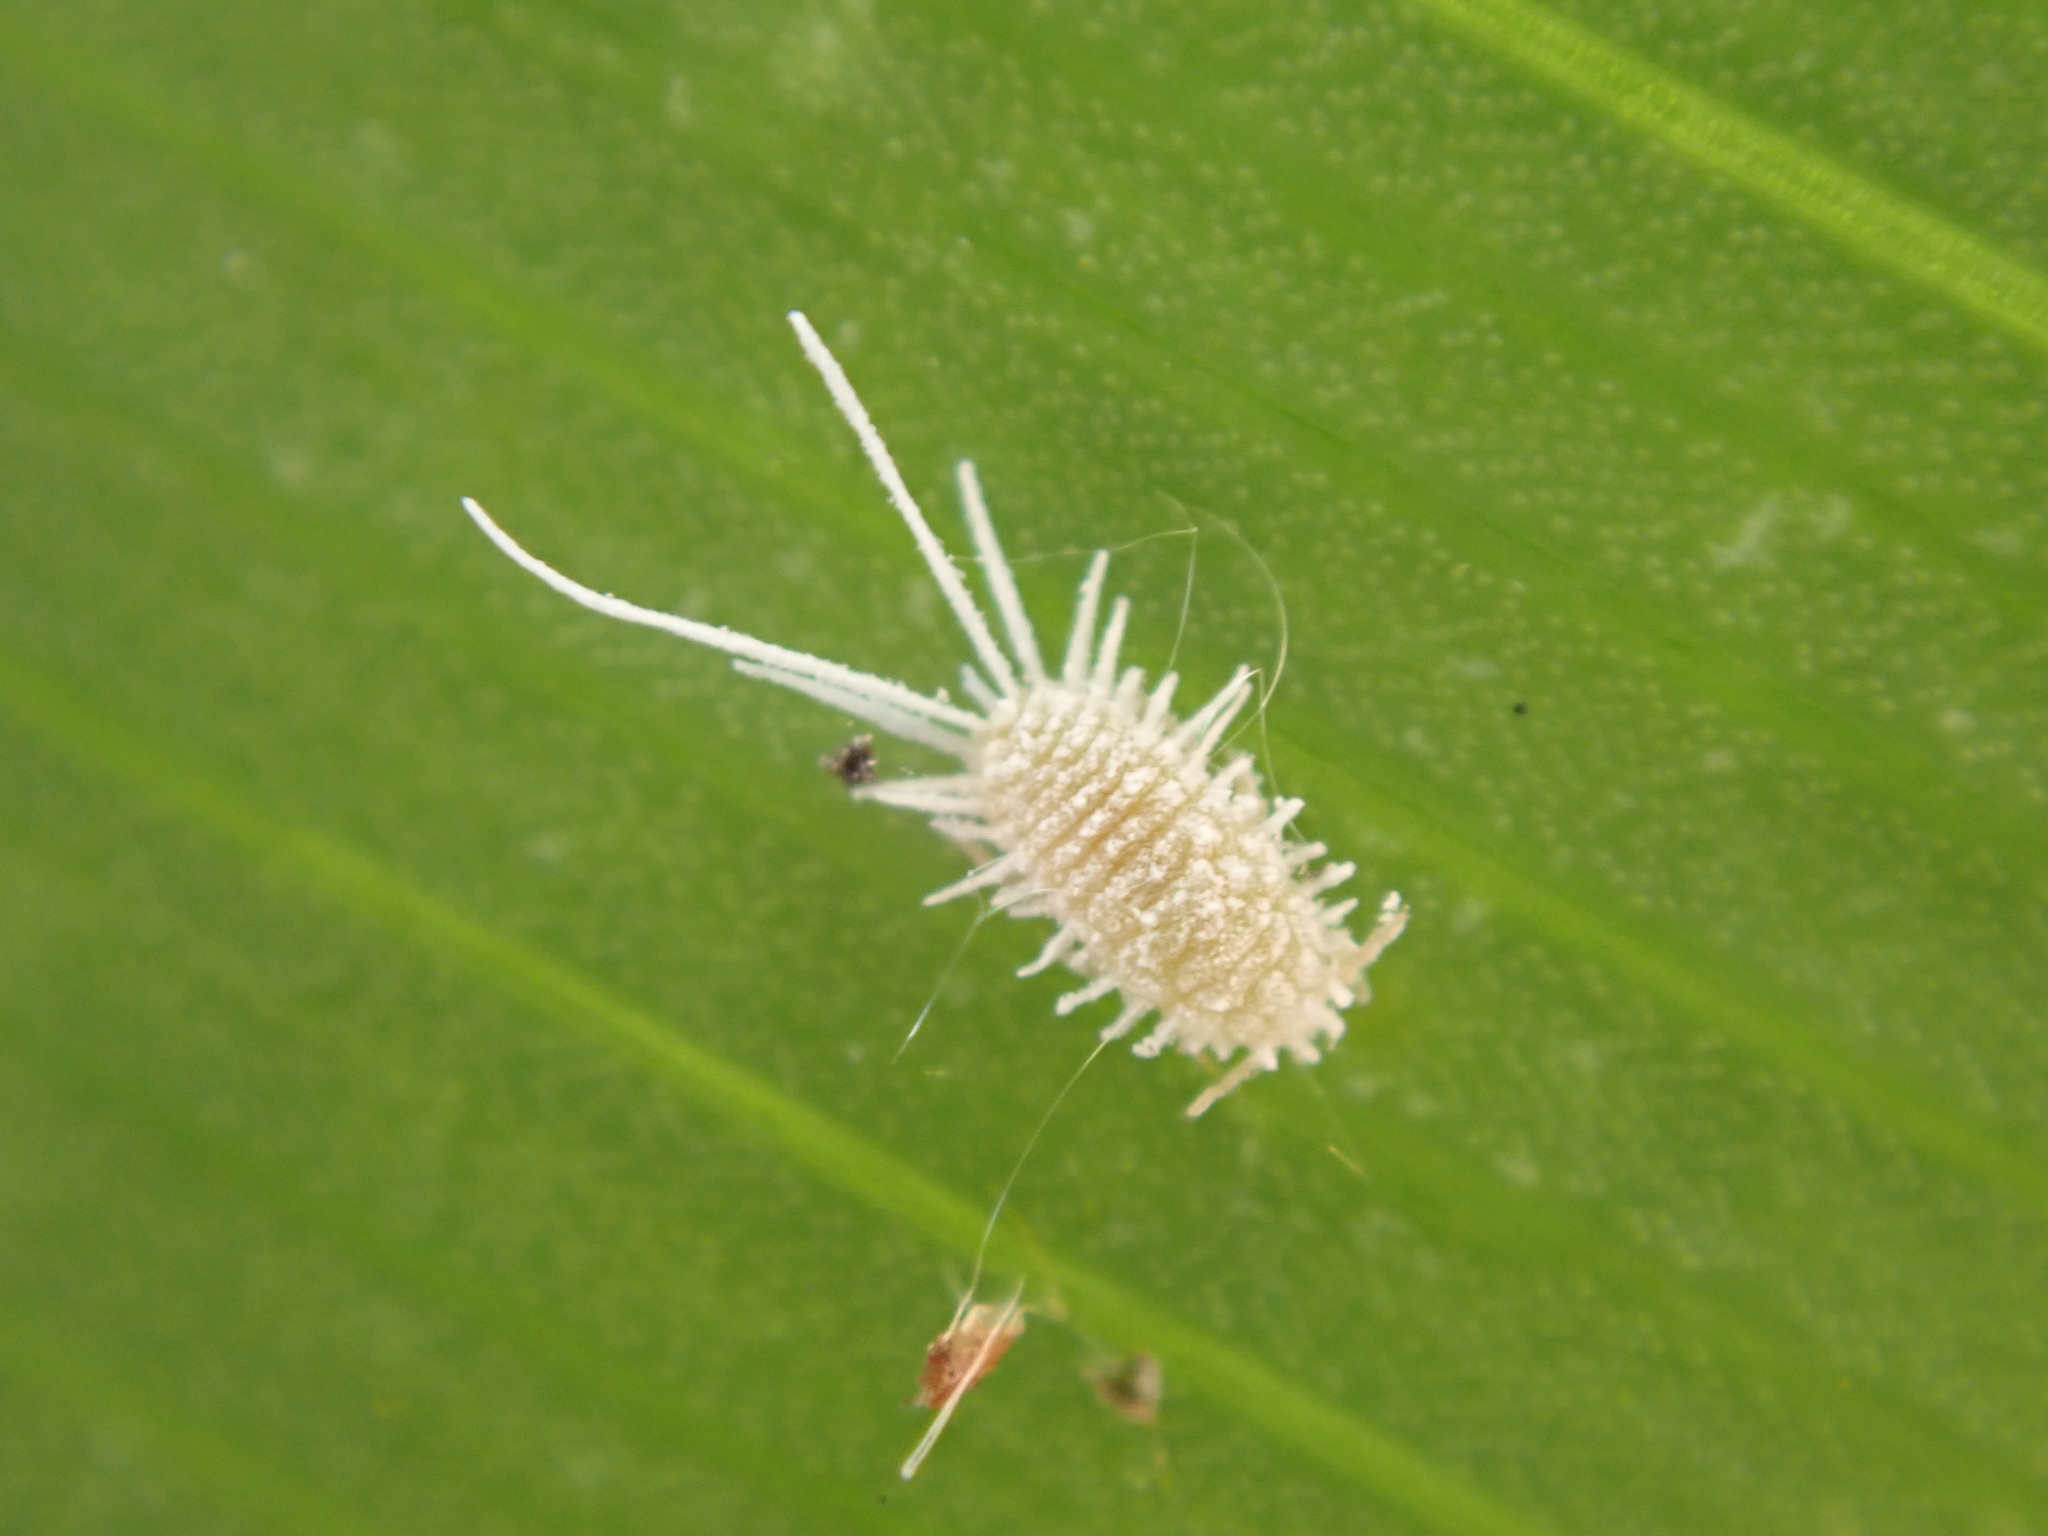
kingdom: Animalia
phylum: Arthropoda
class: Insecta
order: Hemiptera
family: Pseudococcidae
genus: Pseudococcus
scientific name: Pseudococcus longispinus
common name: Long-tailed mealybug
